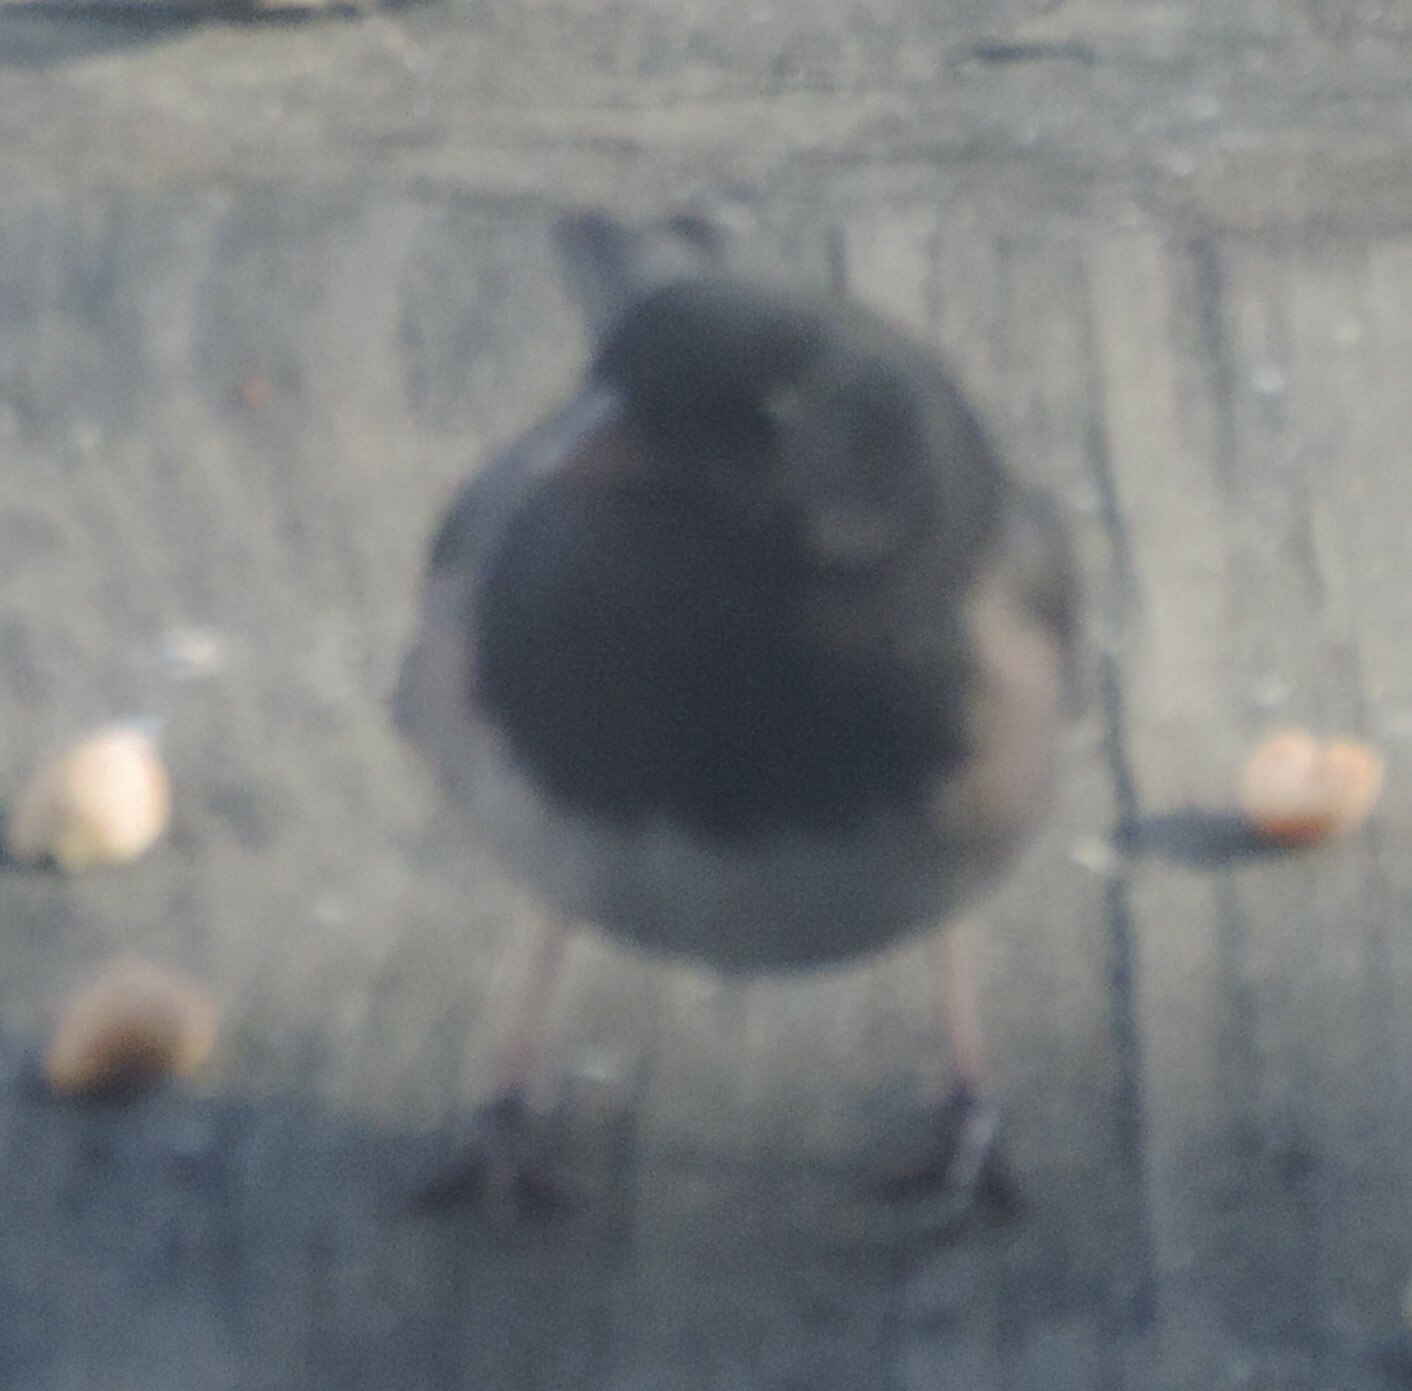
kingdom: Animalia
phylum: Chordata
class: Aves
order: Passeriformes
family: Passerellidae
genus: Junco
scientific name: Junco hyemalis
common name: Dark-eyed junco
